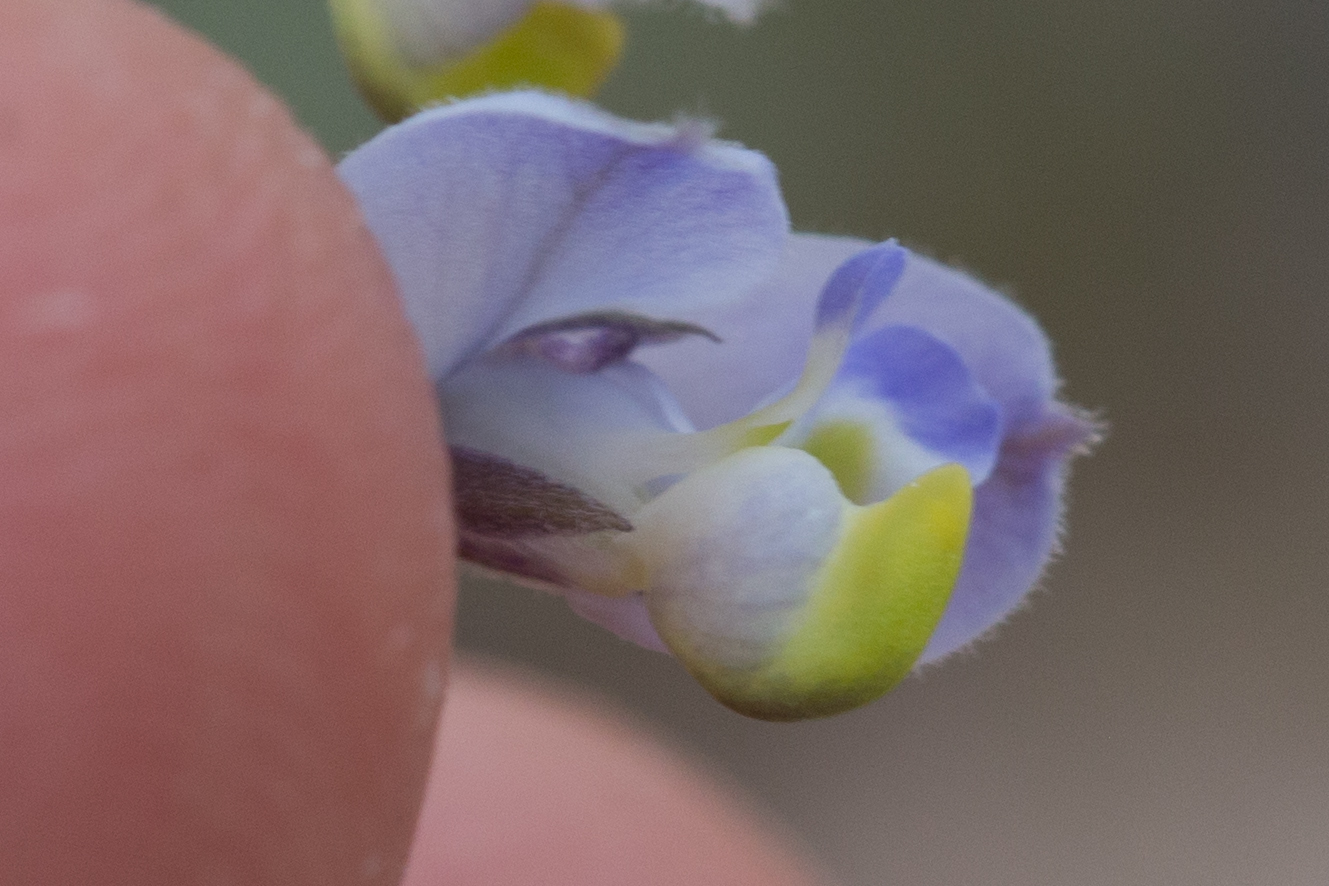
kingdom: Plantae
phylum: Tracheophyta
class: Magnoliopsida
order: Fabales
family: Polygalaceae
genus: Polygala
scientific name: Polygala magdalenae
